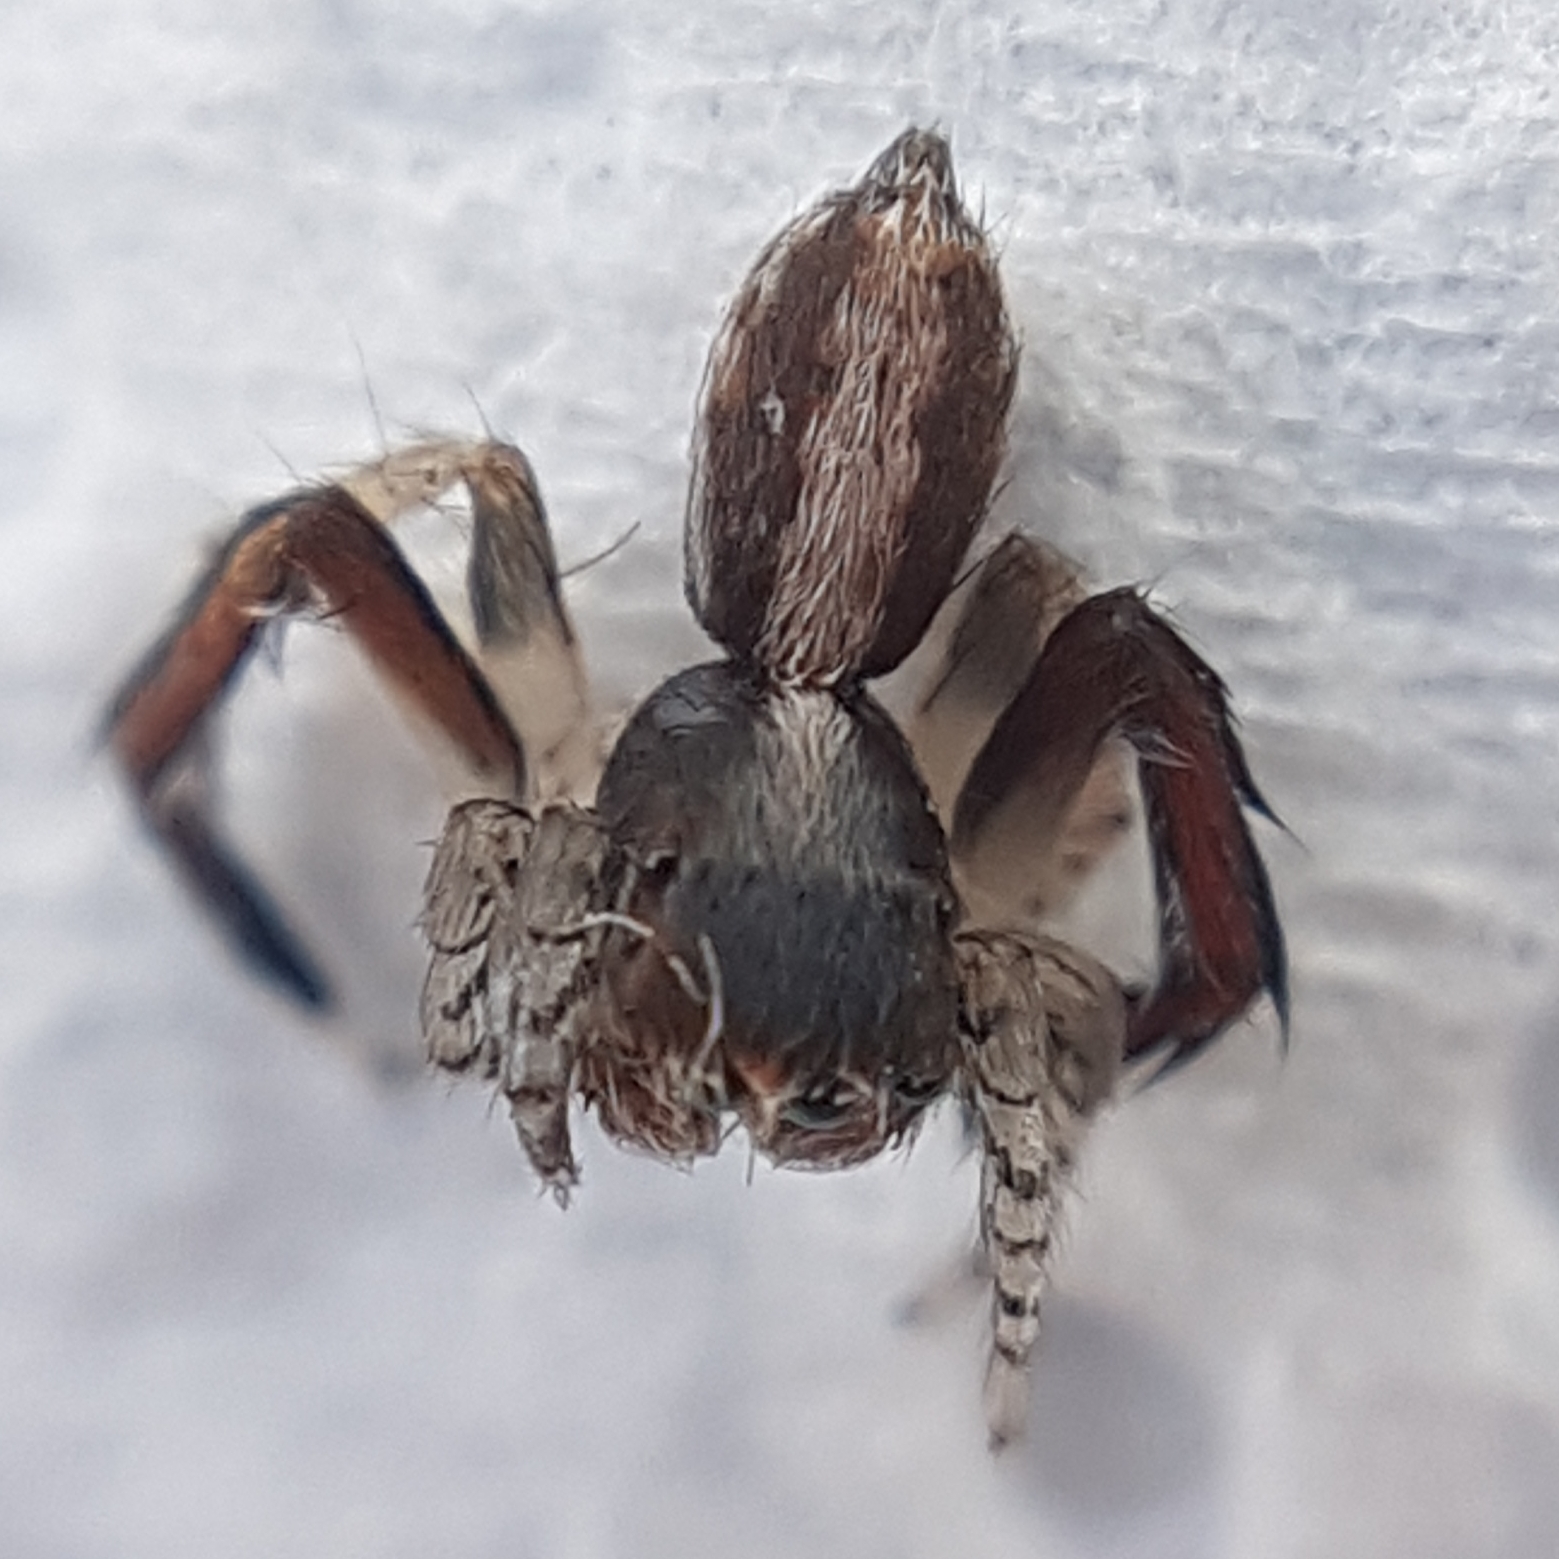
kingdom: Animalia
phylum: Arthropoda
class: Arachnida
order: Araneae
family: Salticidae
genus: Saitis
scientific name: Saitis barbipes
